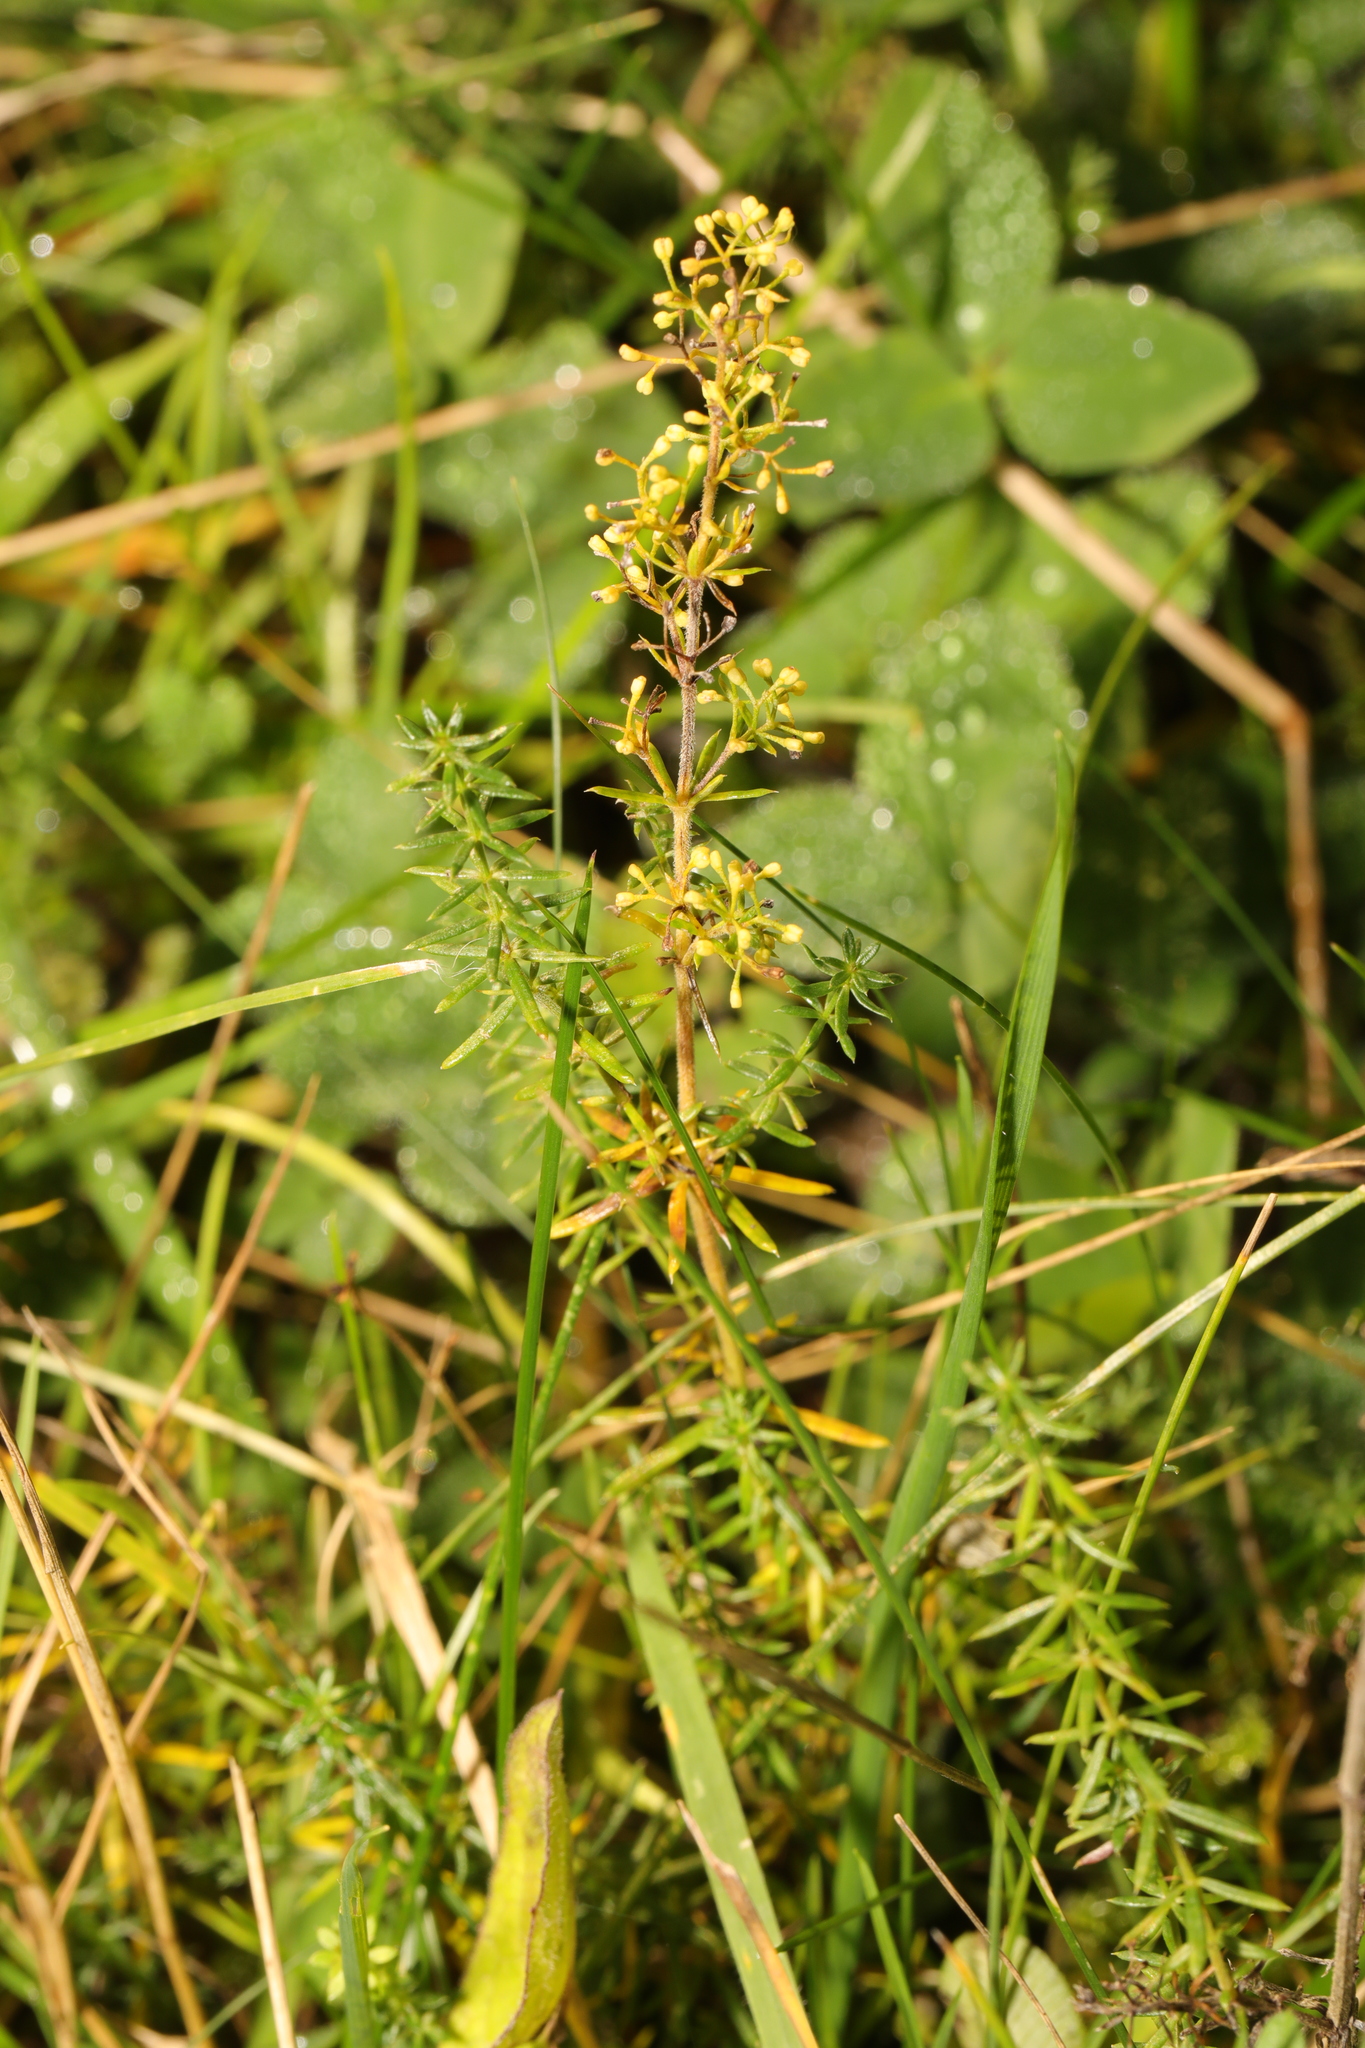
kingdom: Plantae
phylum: Tracheophyta
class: Magnoliopsida
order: Gentianales
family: Rubiaceae
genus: Galium
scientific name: Galium verum
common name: Lady's bedstraw
